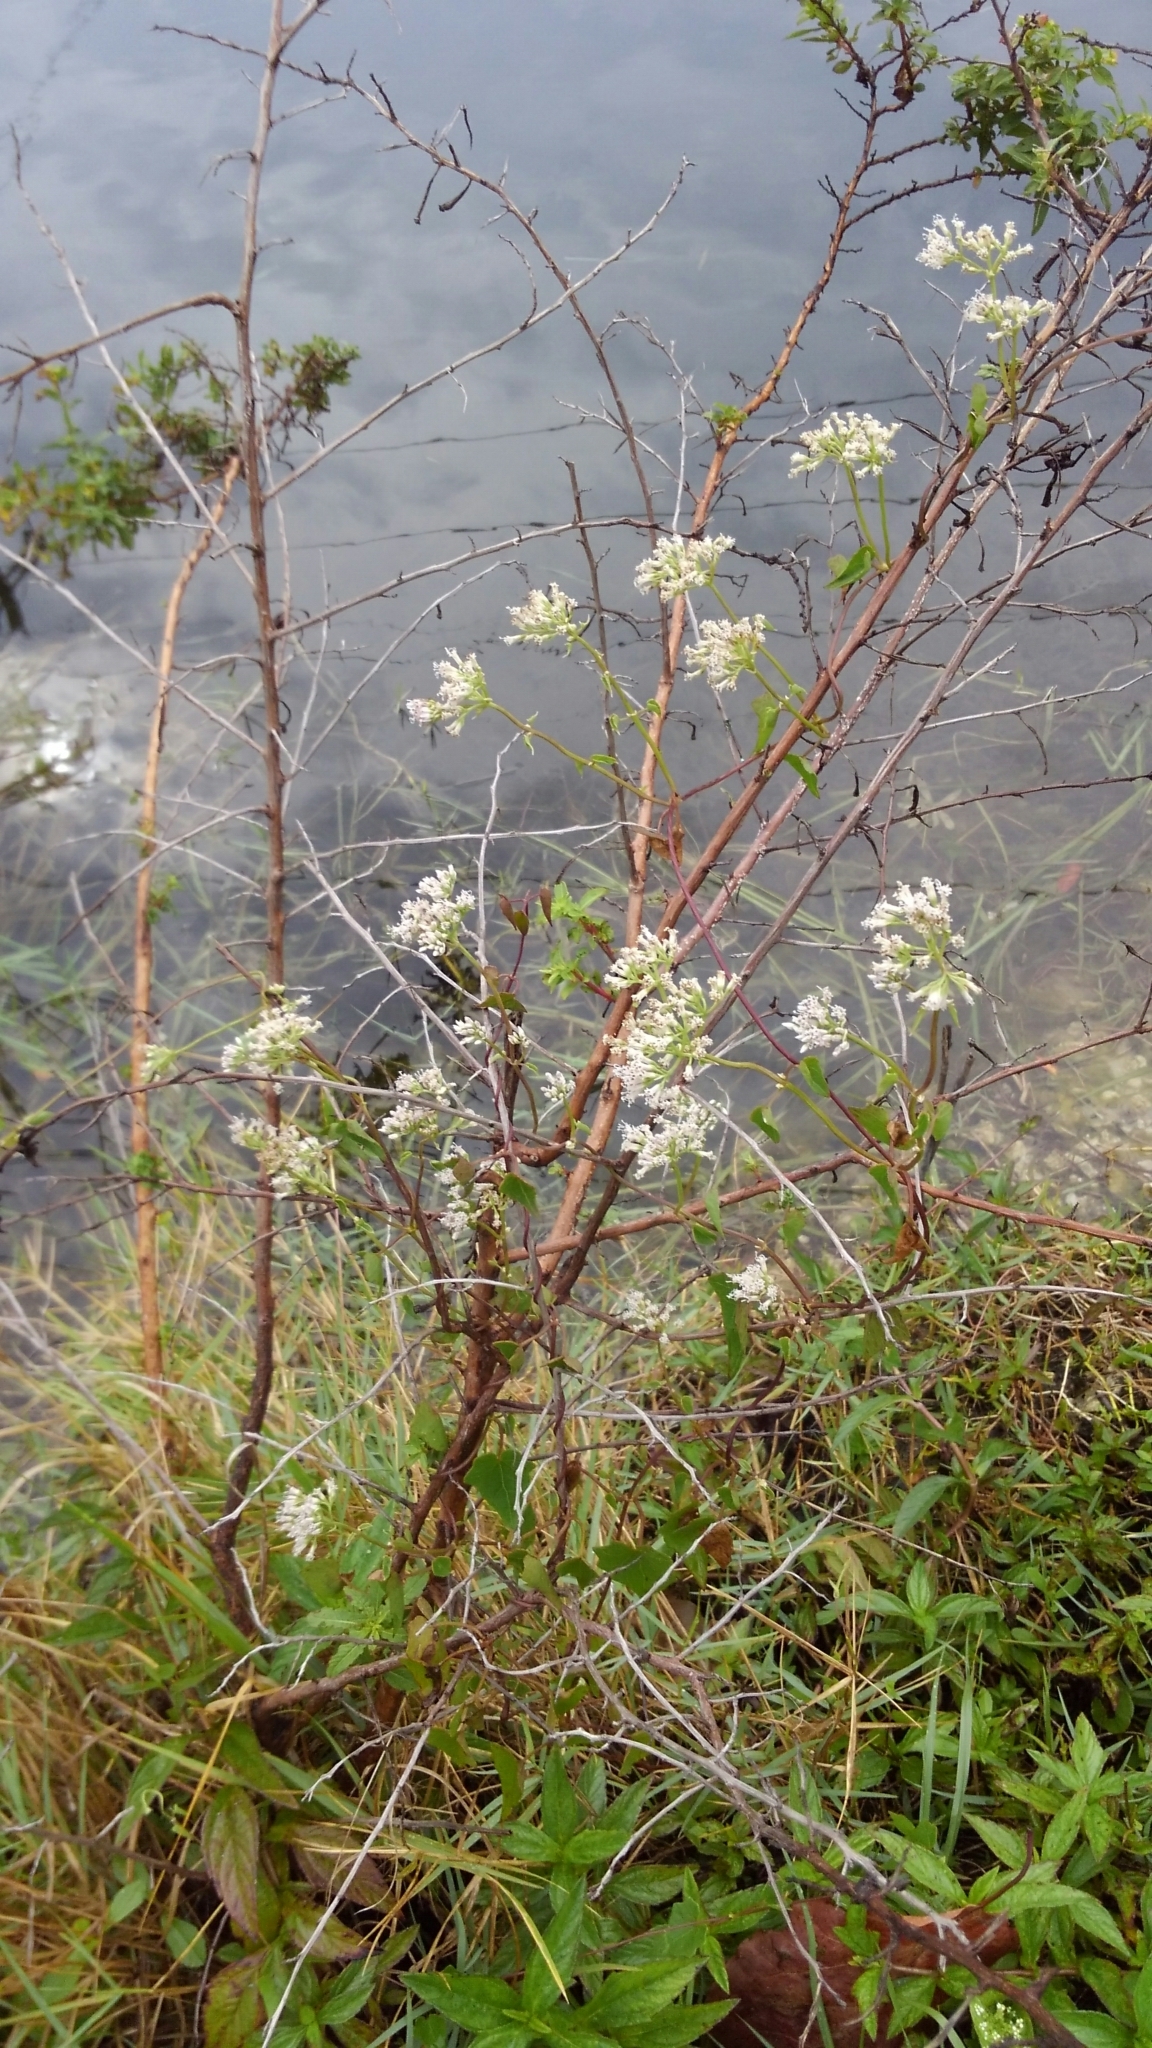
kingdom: Plantae
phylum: Tracheophyta
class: Magnoliopsida
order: Asterales
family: Asteraceae
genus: Mikania
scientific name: Mikania scandens
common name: Climbing hempvine
